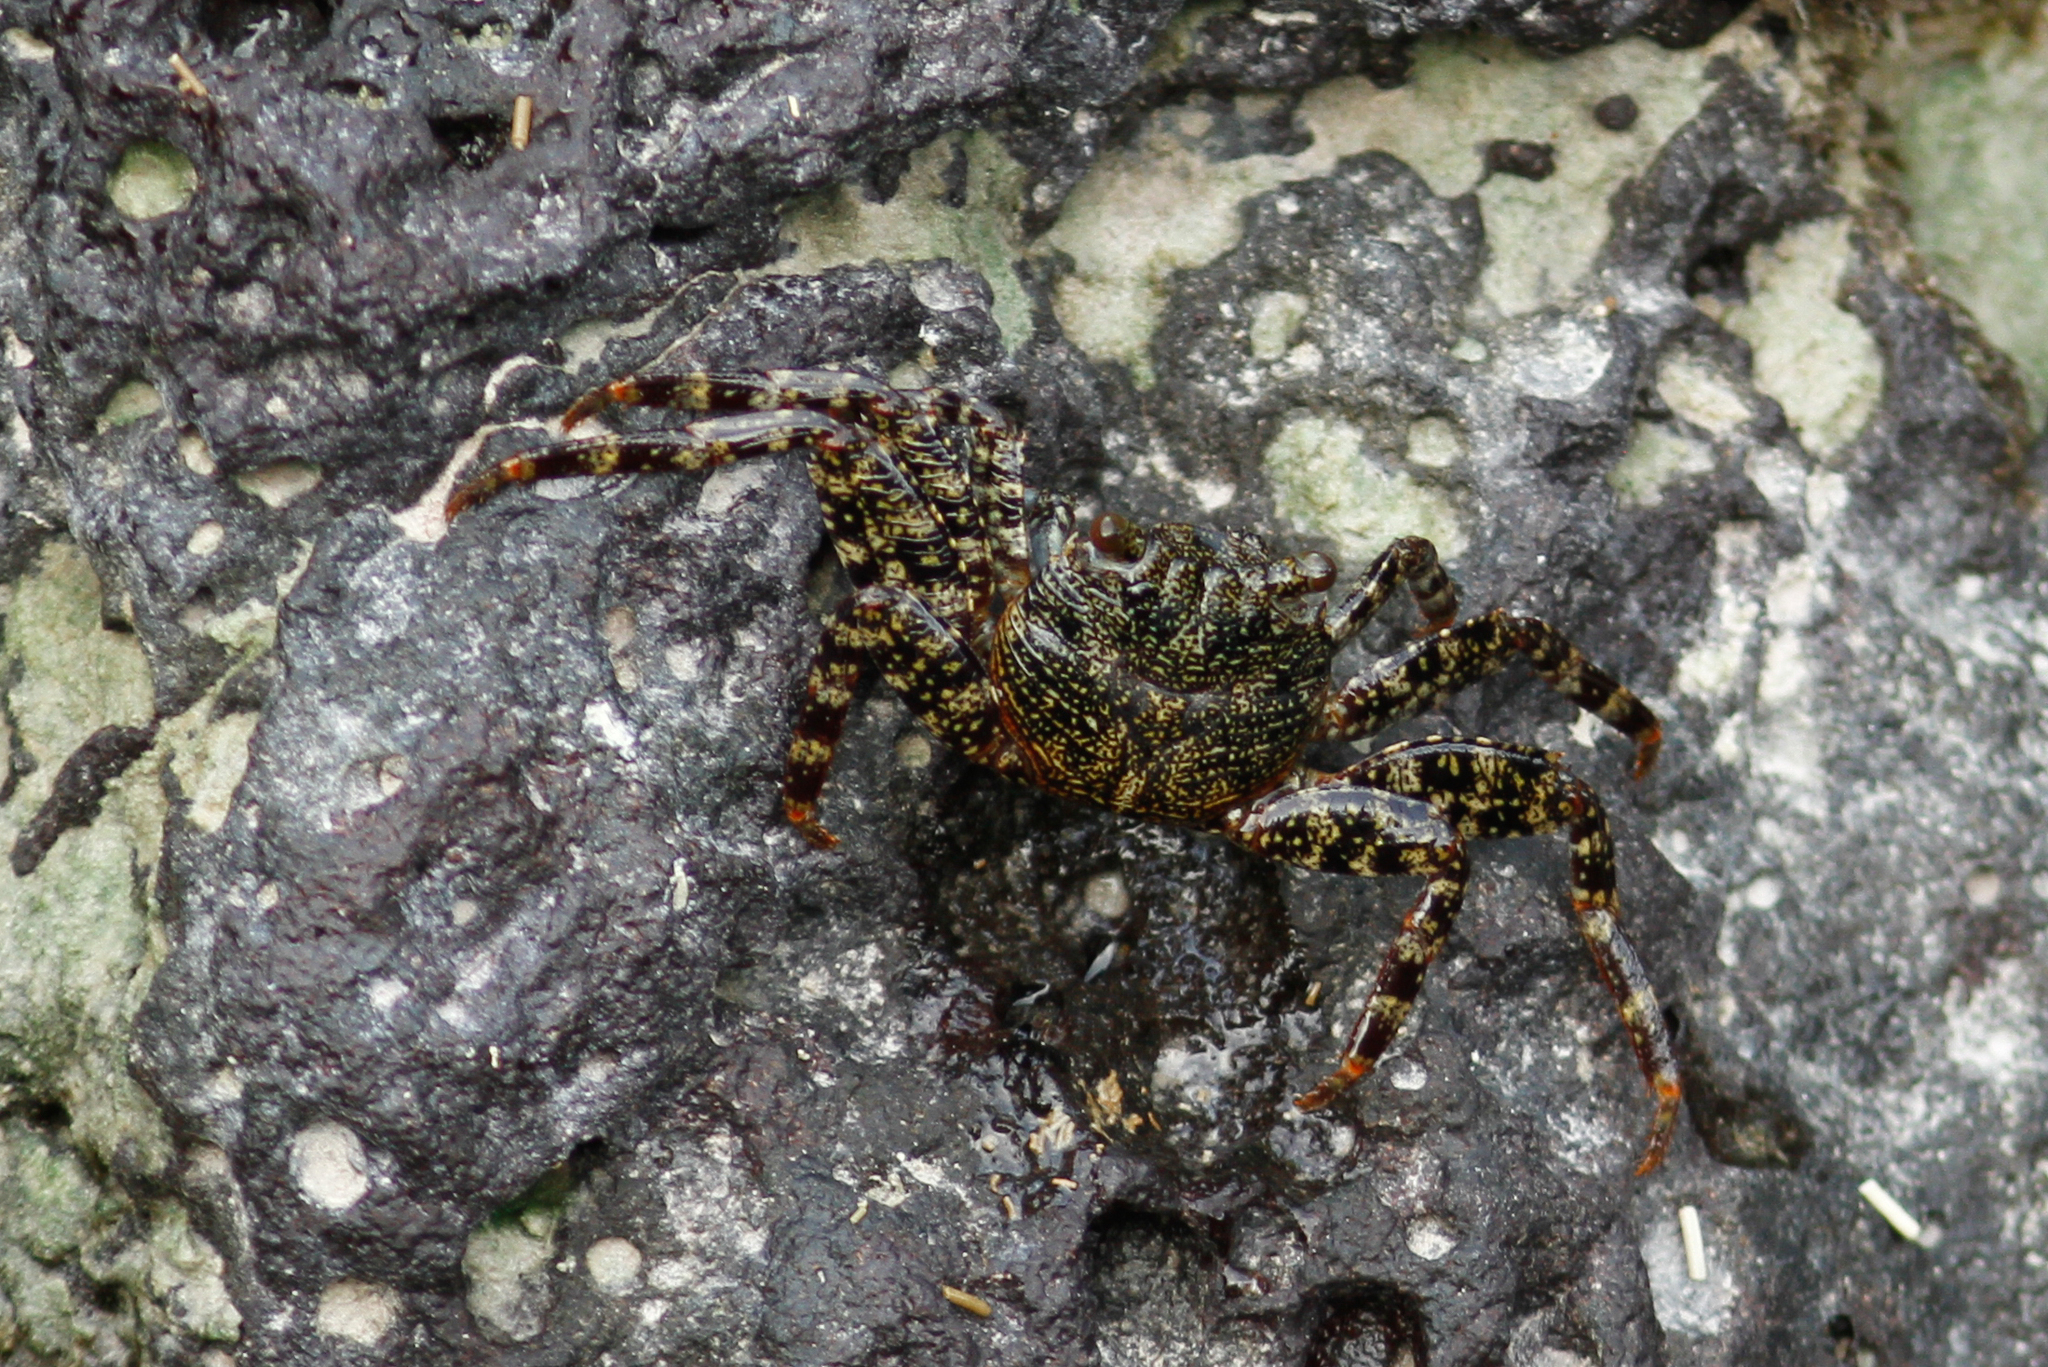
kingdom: Animalia
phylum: Arthropoda
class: Malacostraca
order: Decapoda
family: Grapsidae
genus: Grapsus
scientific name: Grapsus grapsus
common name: Sally lightfoot
